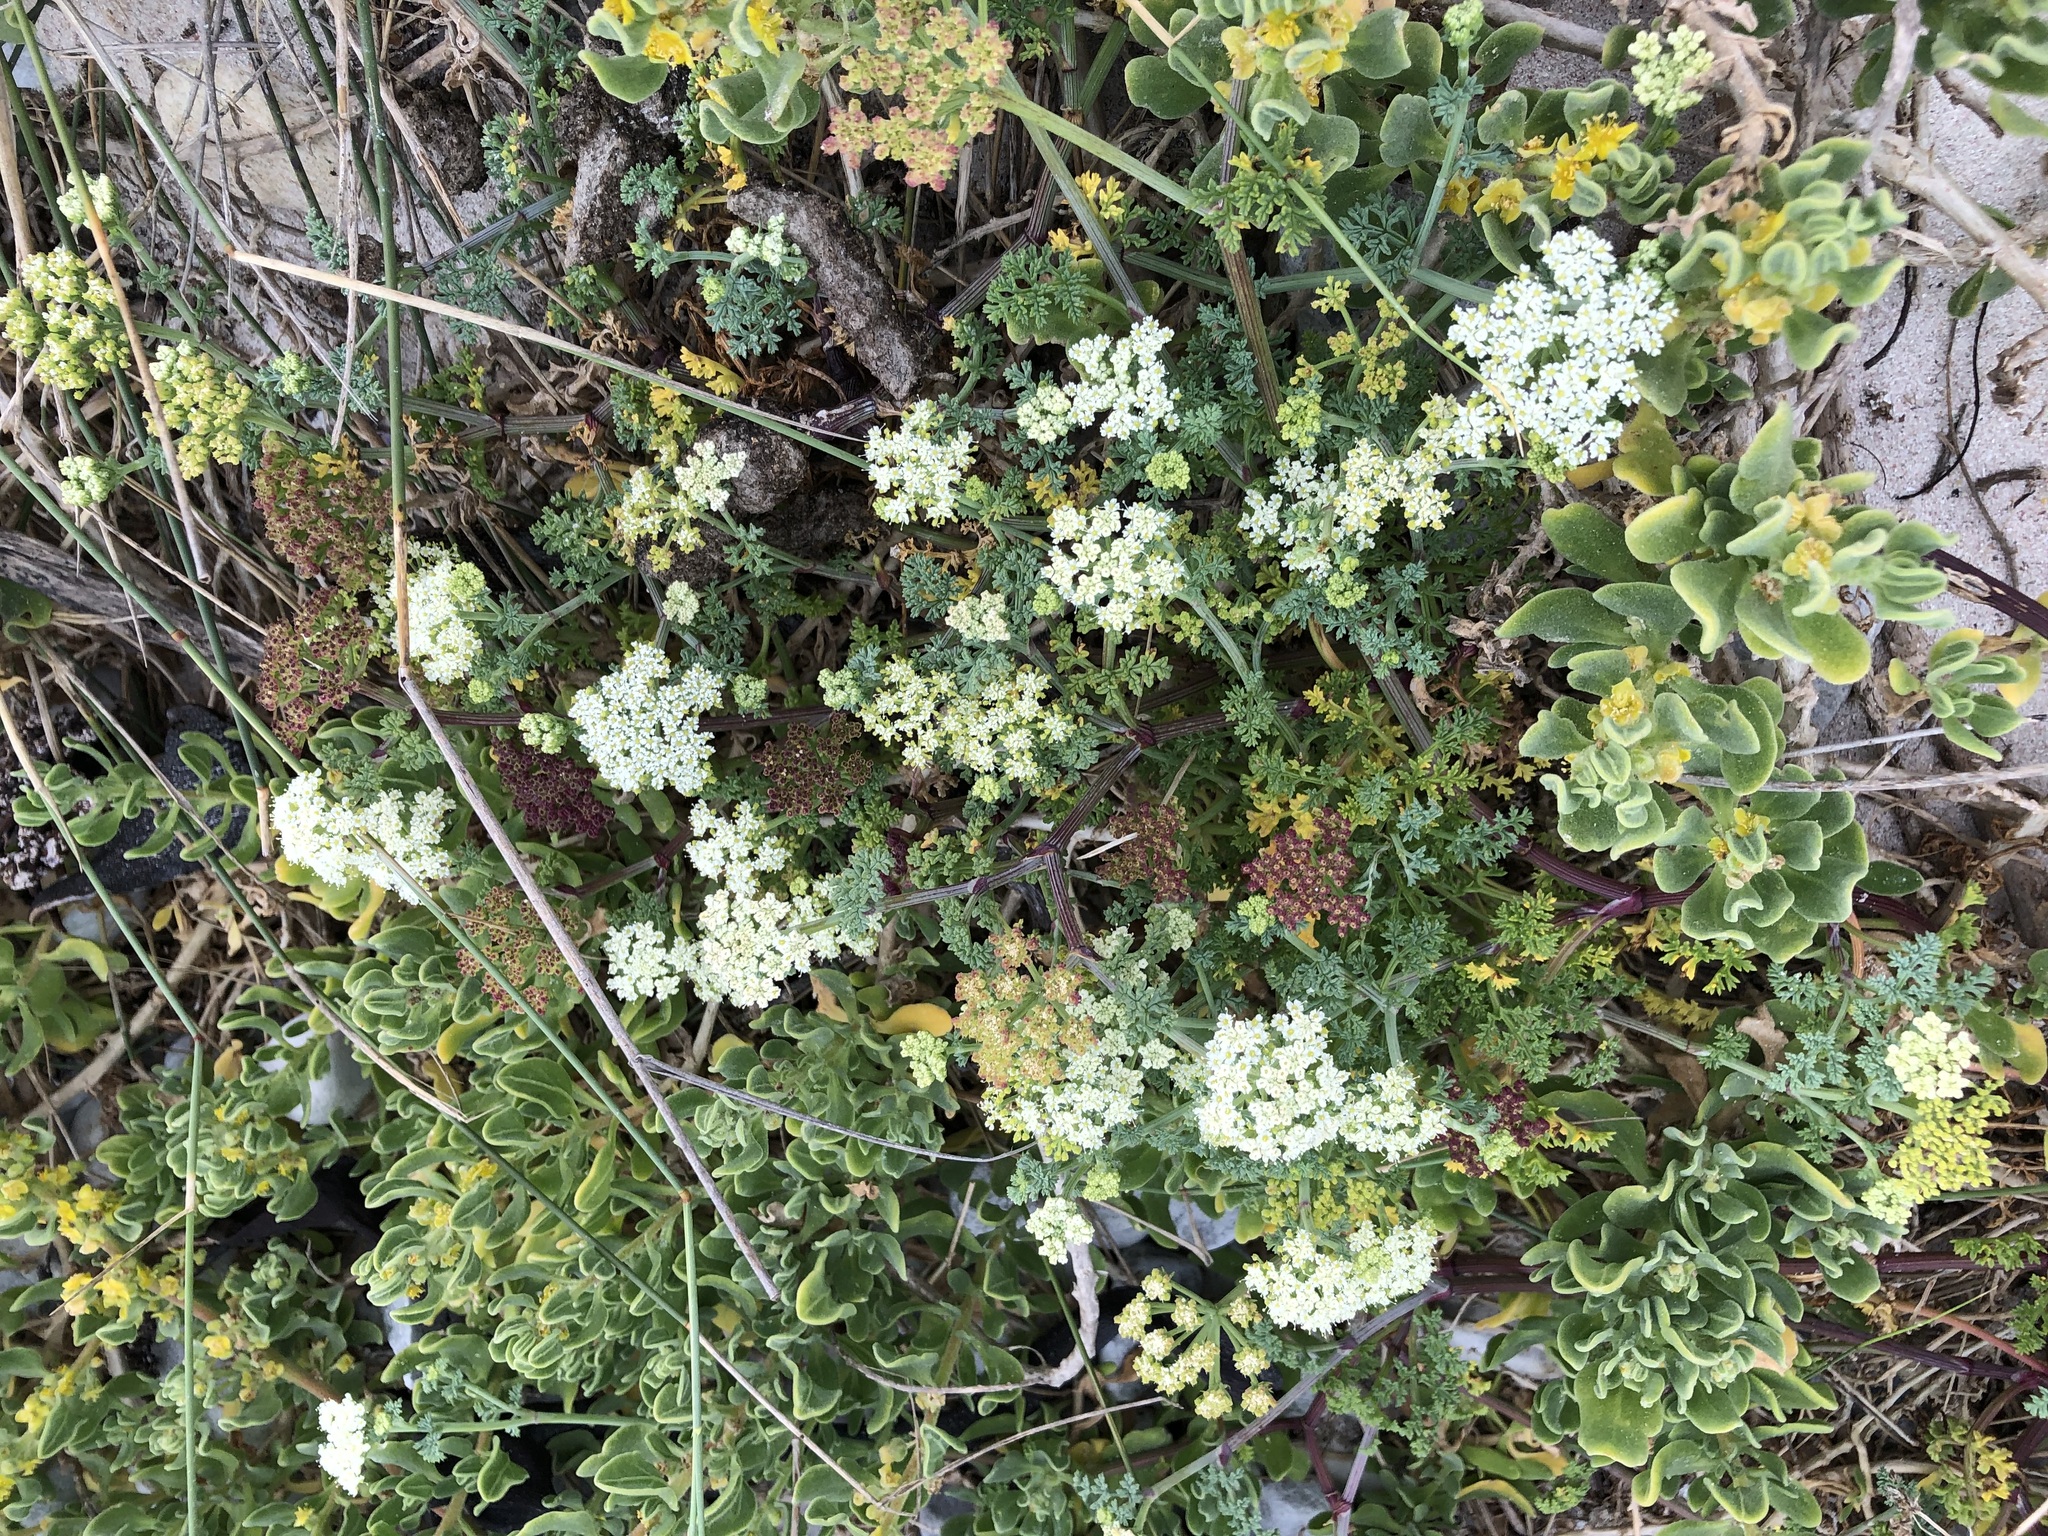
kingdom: Plantae
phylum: Tracheophyta
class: Magnoliopsida
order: Apiales
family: Apiaceae
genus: Dasispermum
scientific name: Dasispermum suffruticosum
